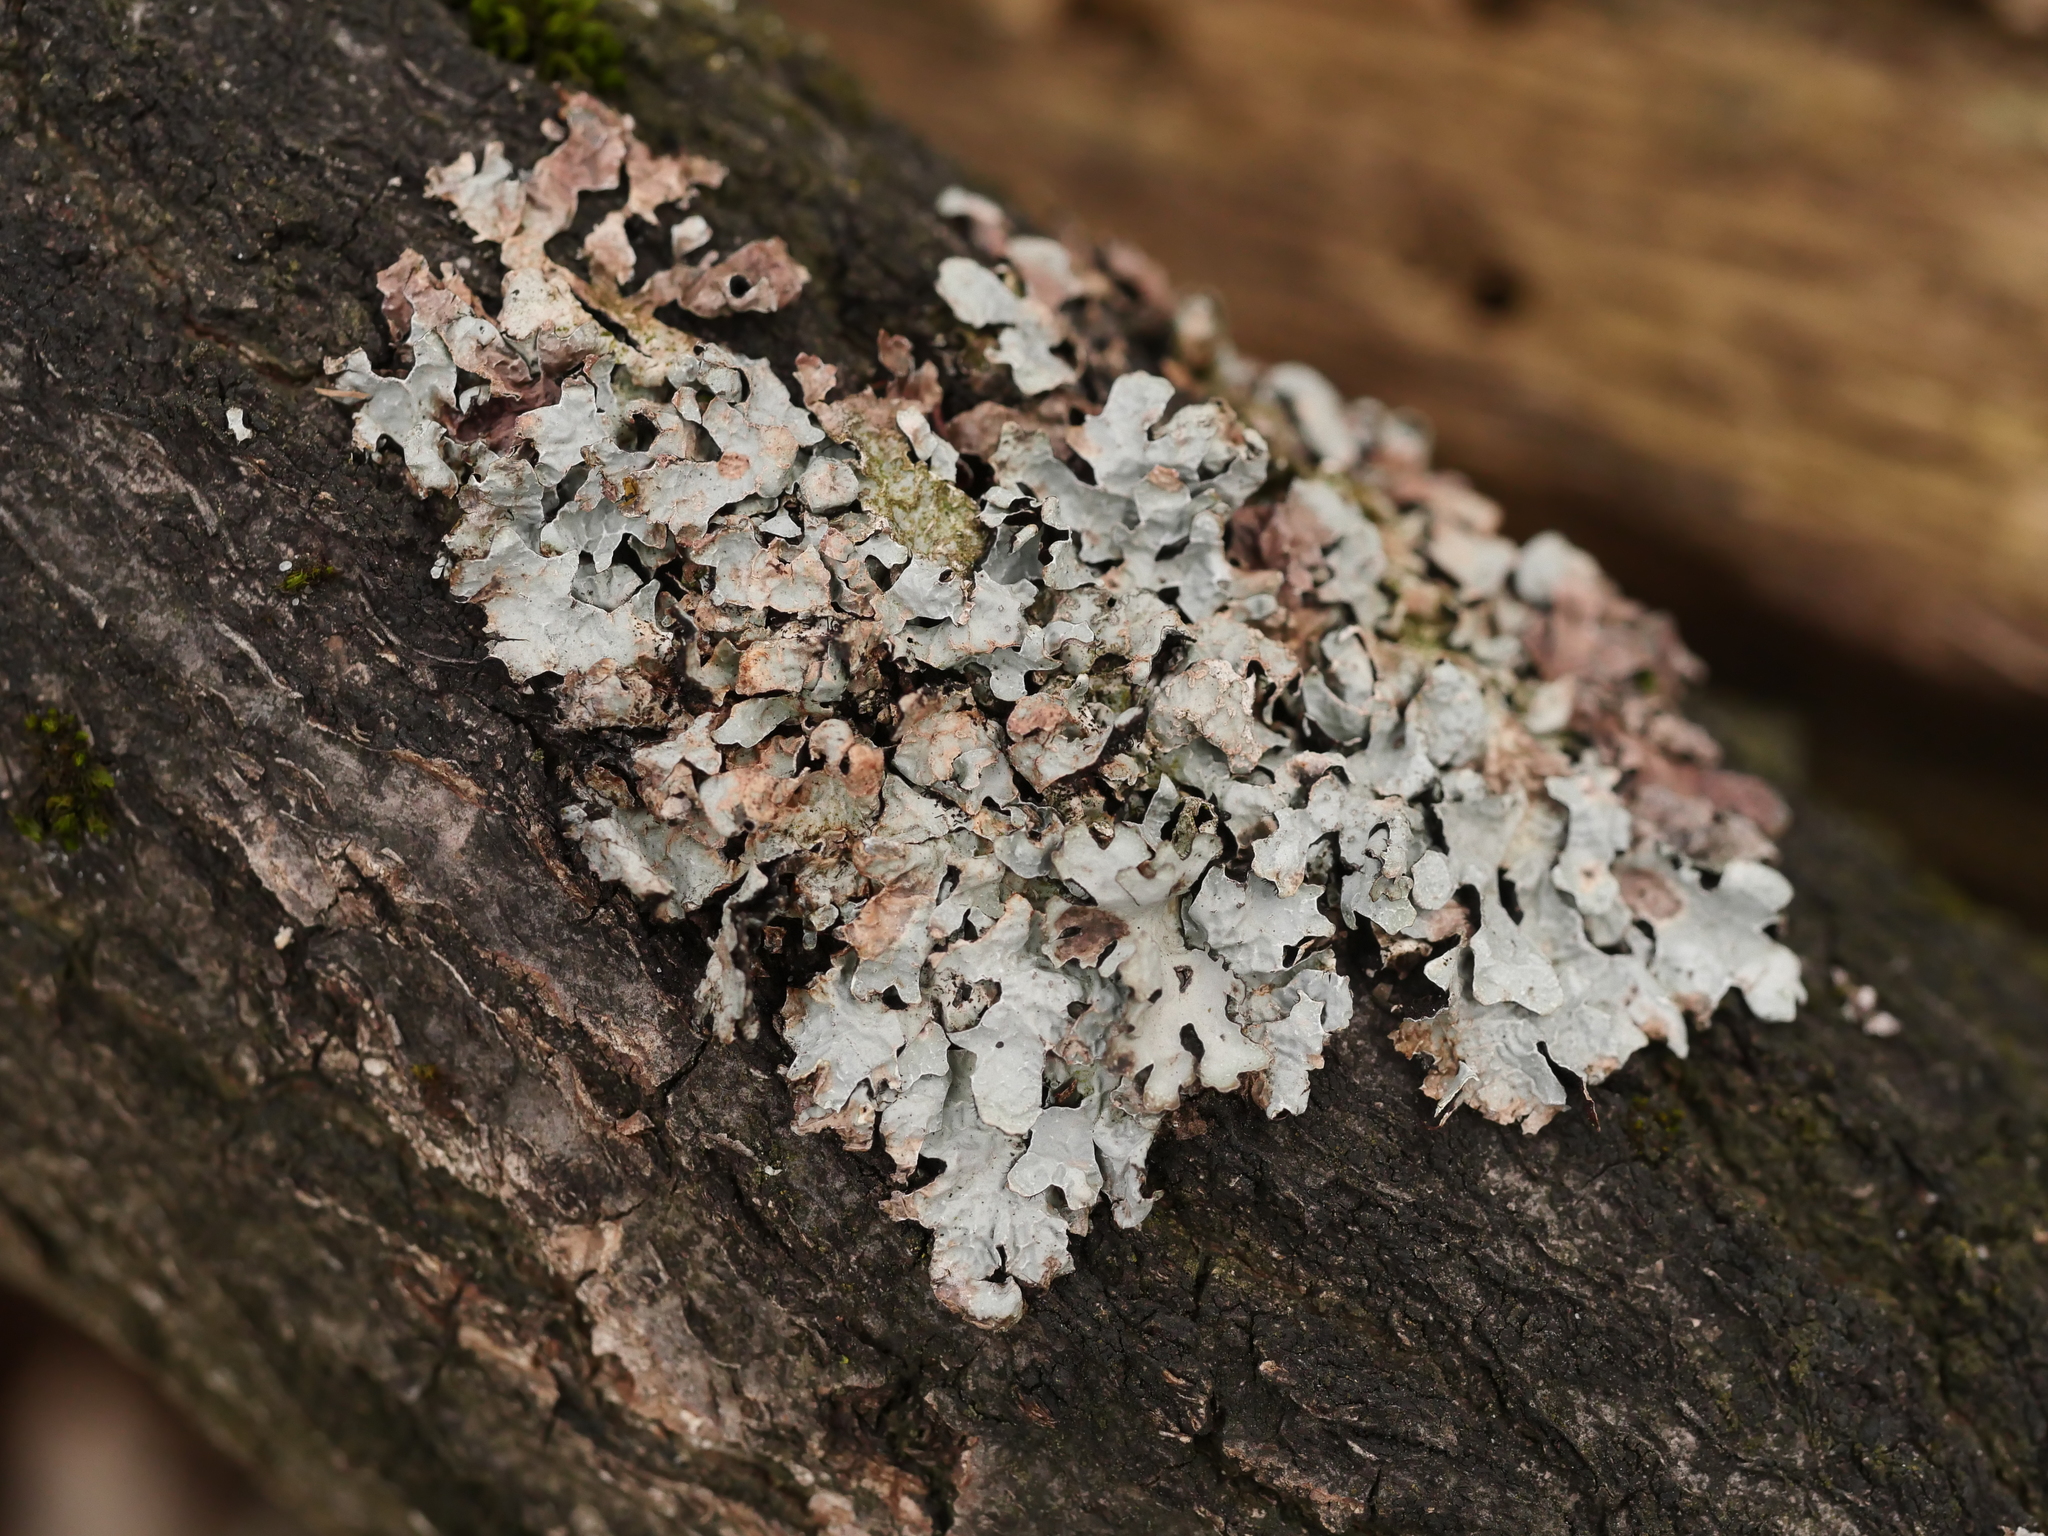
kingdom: Fungi
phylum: Ascomycota
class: Lecanoromycetes
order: Lecanorales
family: Parmeliaceae
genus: Parmelia
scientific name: Parmelia sulcata
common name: Netted shield lichen
